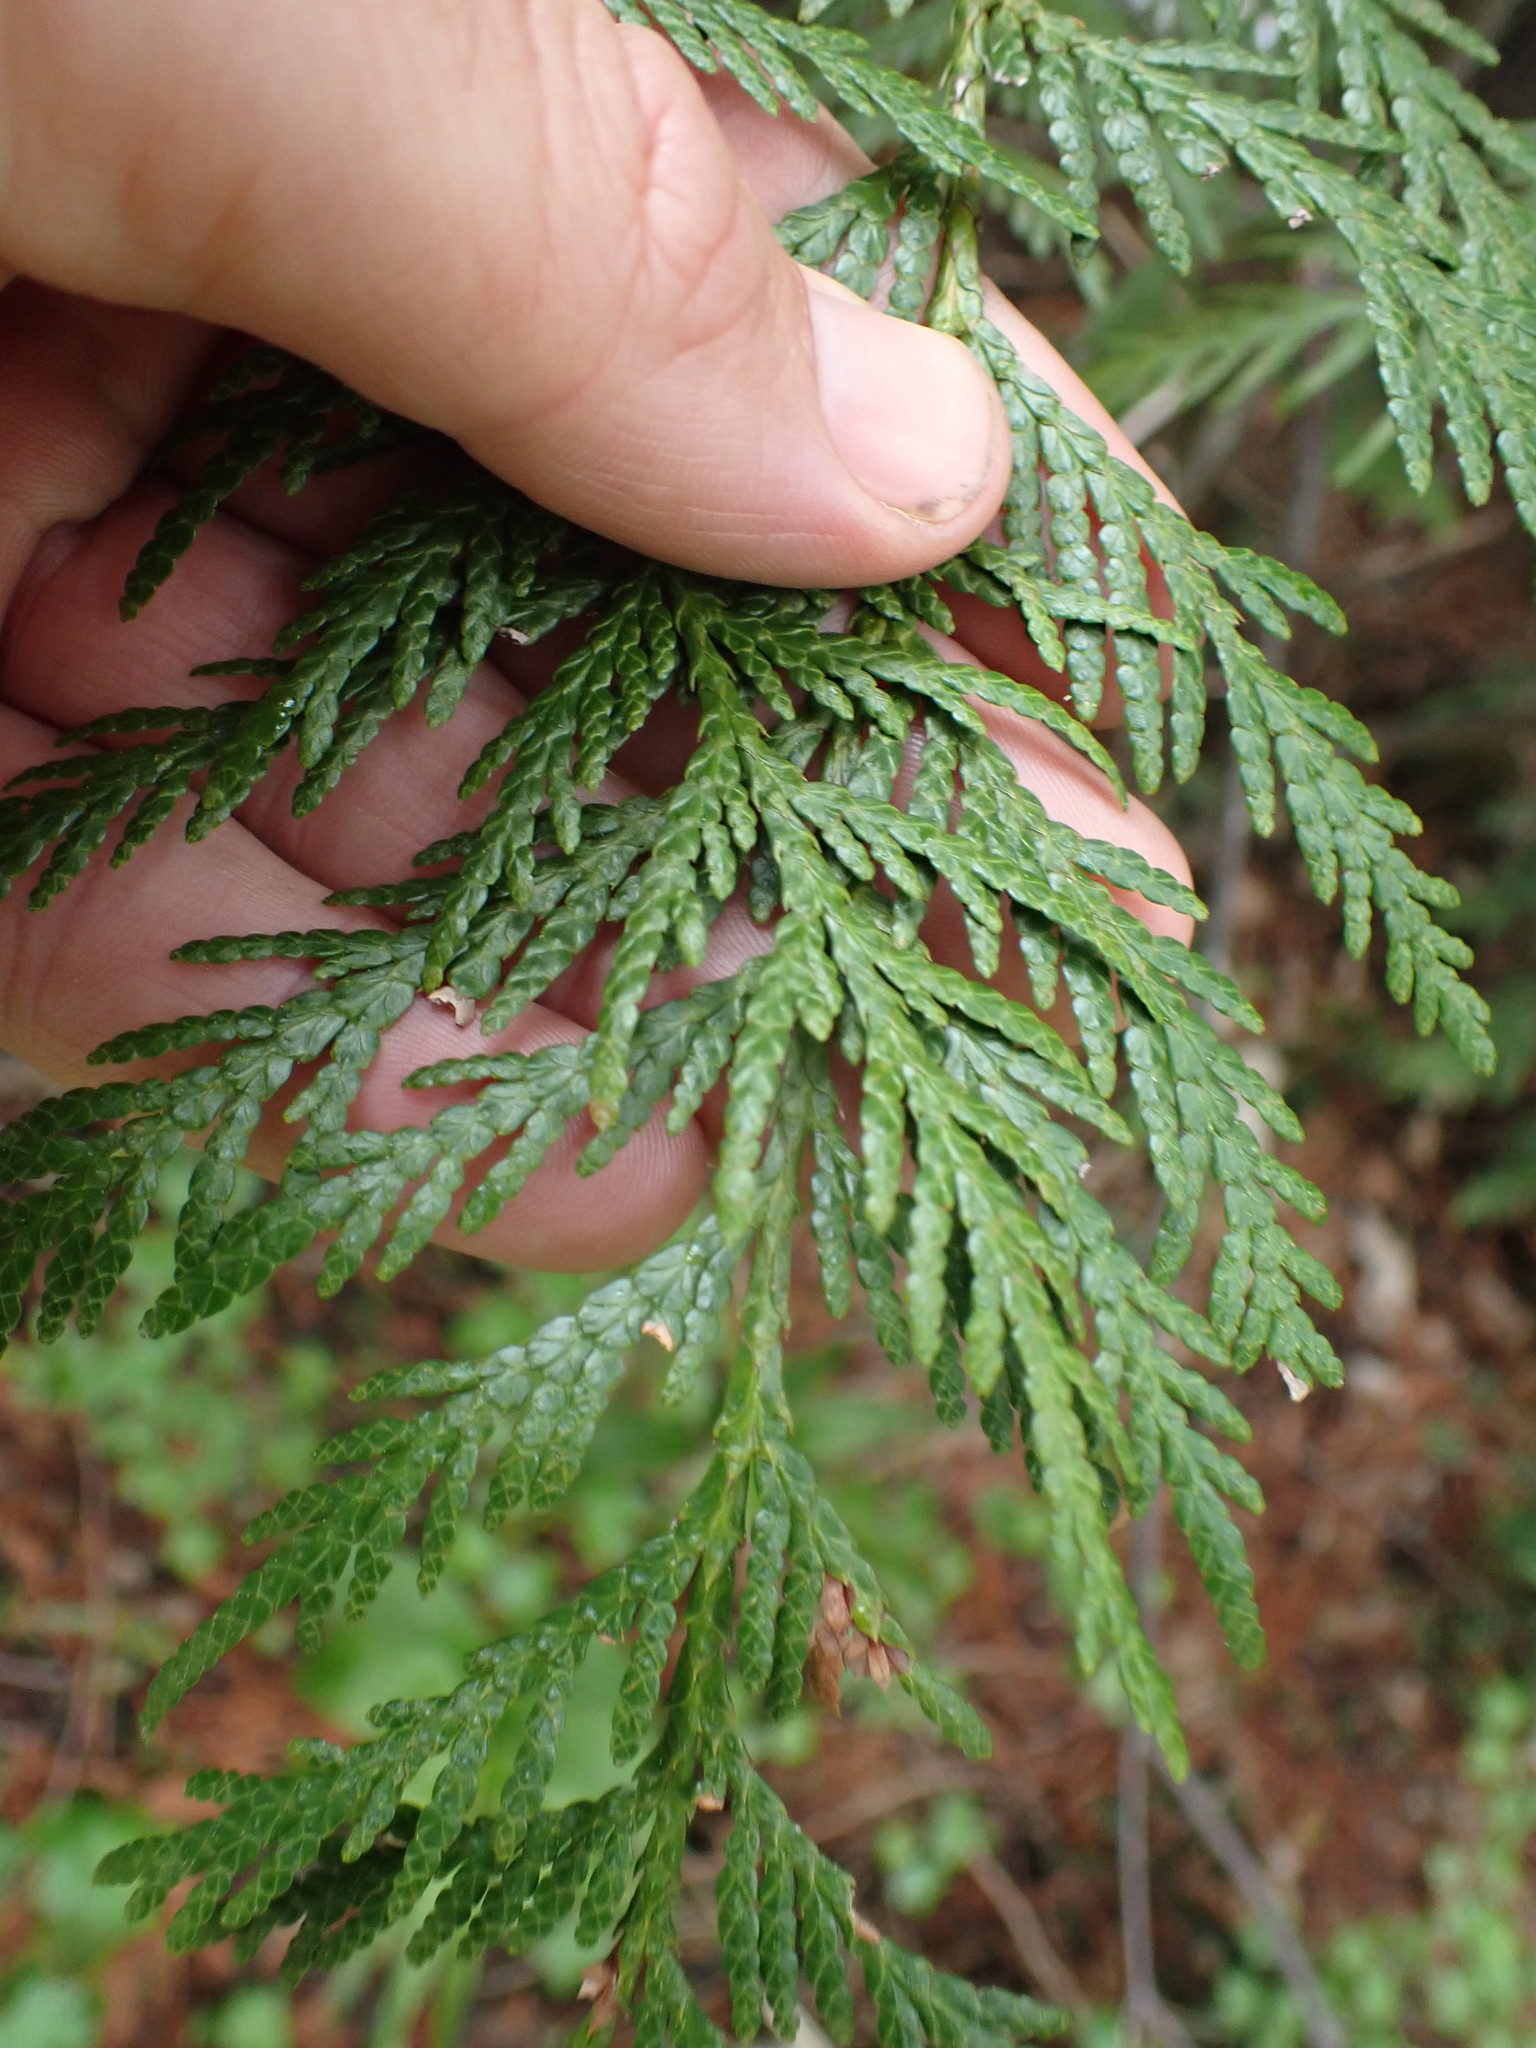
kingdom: Plantae
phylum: Tracheophyta
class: Pinopsida
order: Pinales
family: Cupressaceae
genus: Thuja
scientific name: Thuja plicata
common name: Western red-cedar
